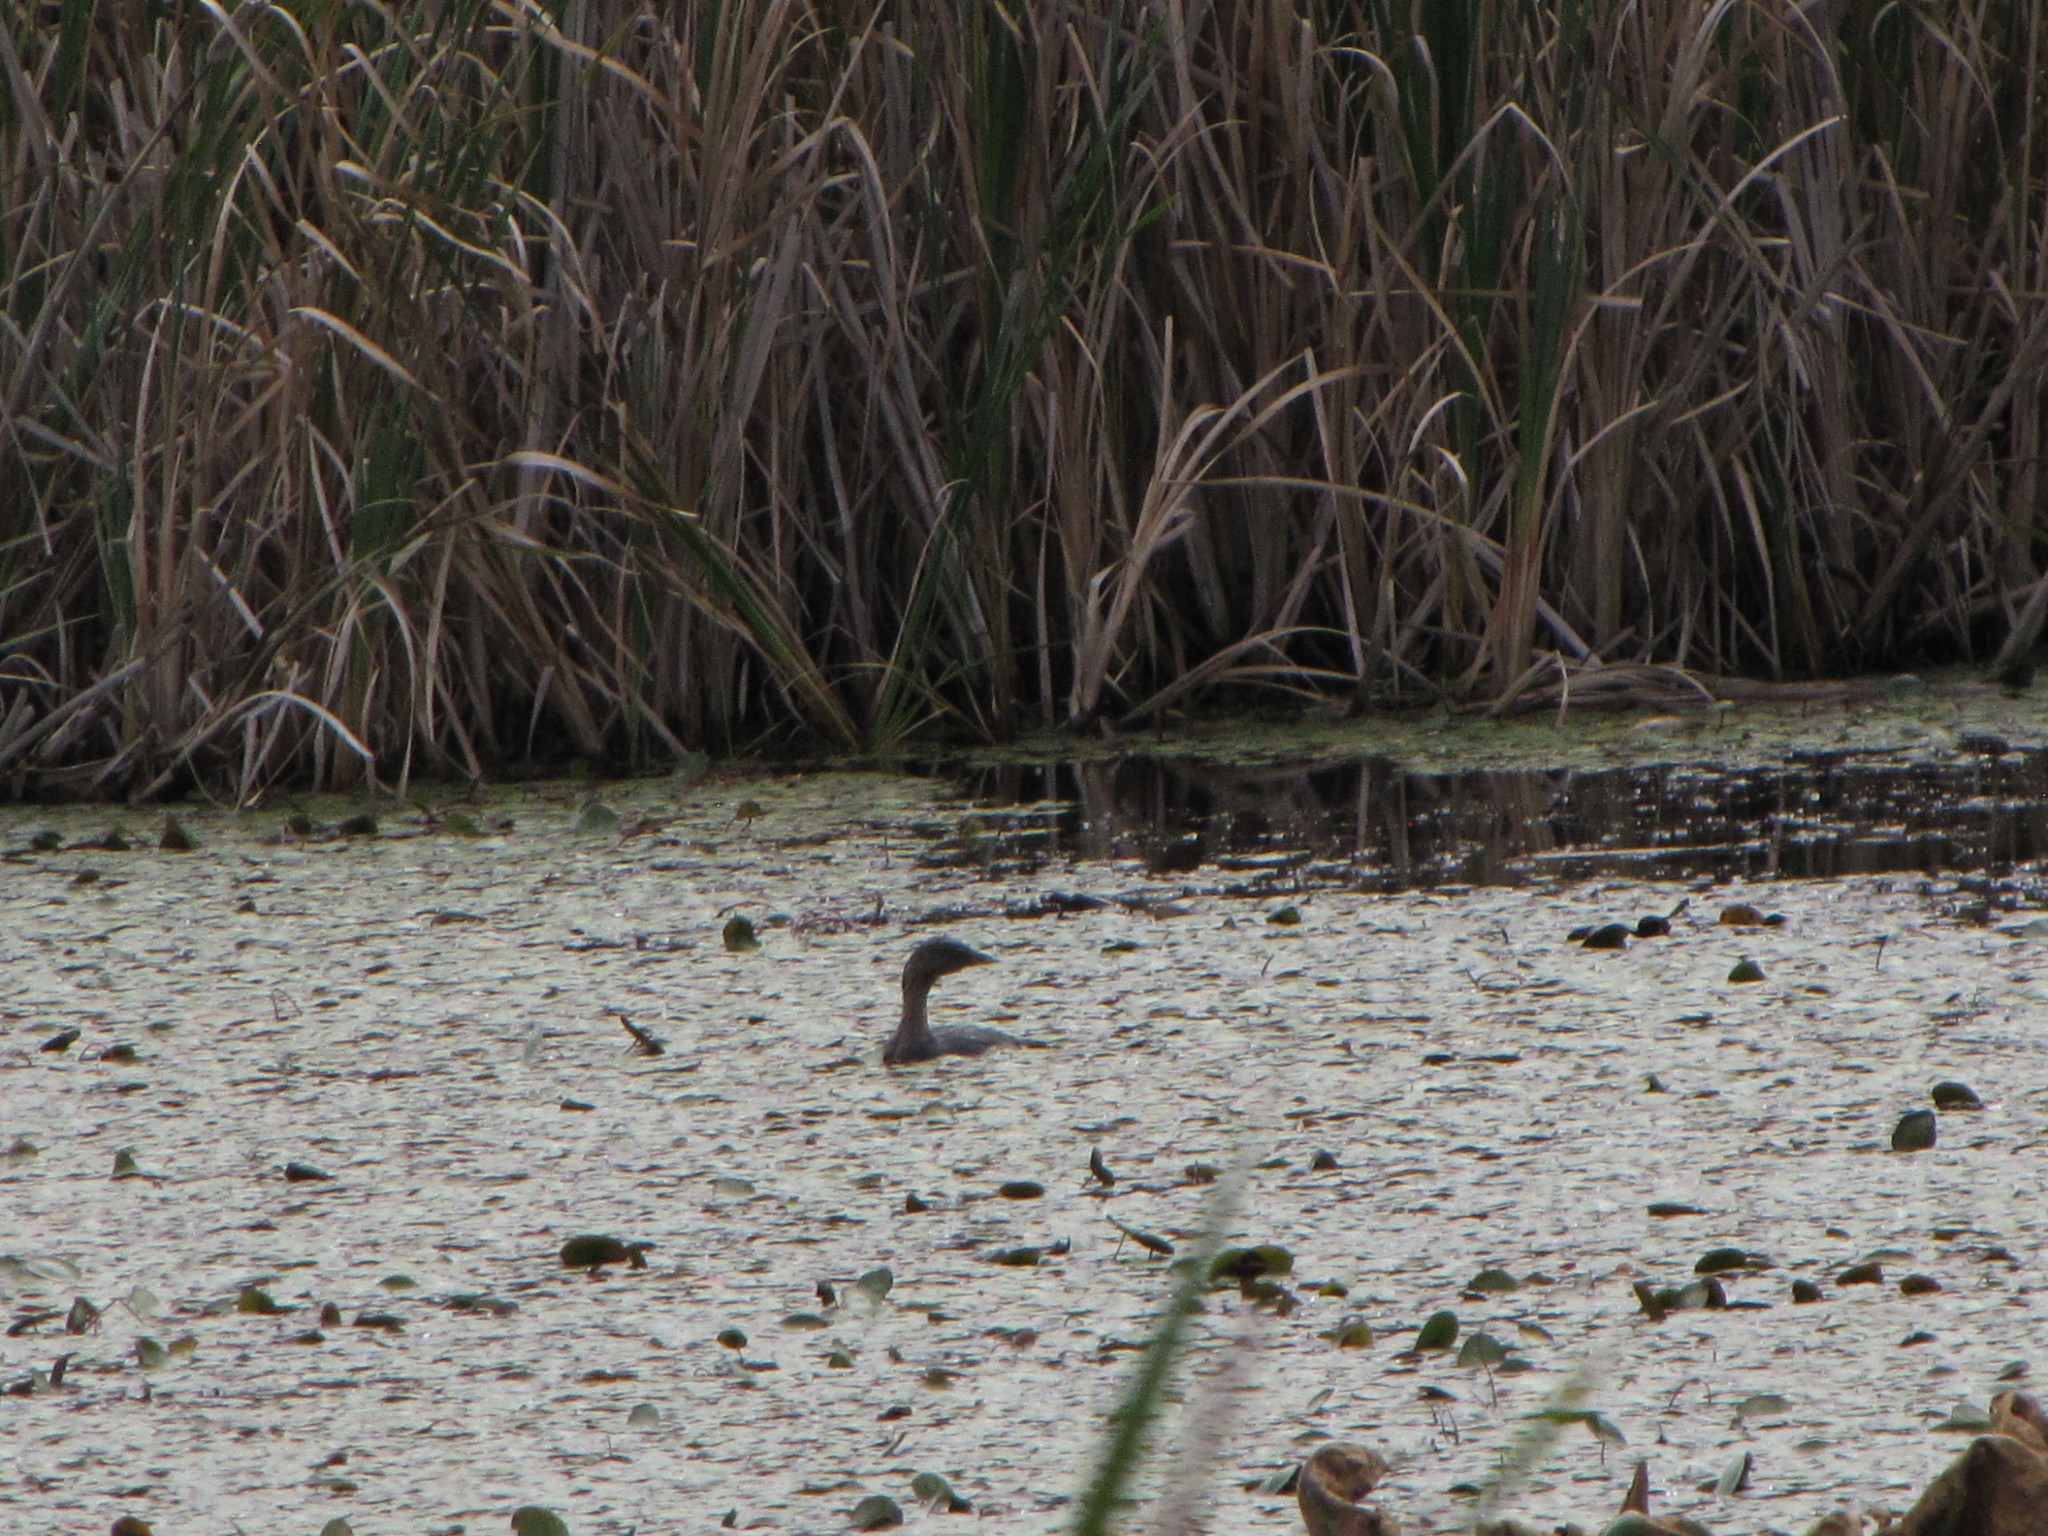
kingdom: Animalia
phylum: Chordata
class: Aves
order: Podicipediformes
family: Podicipedidae
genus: Podilymbus
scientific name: Podilymbus podiceps
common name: Pied-billed grebe
